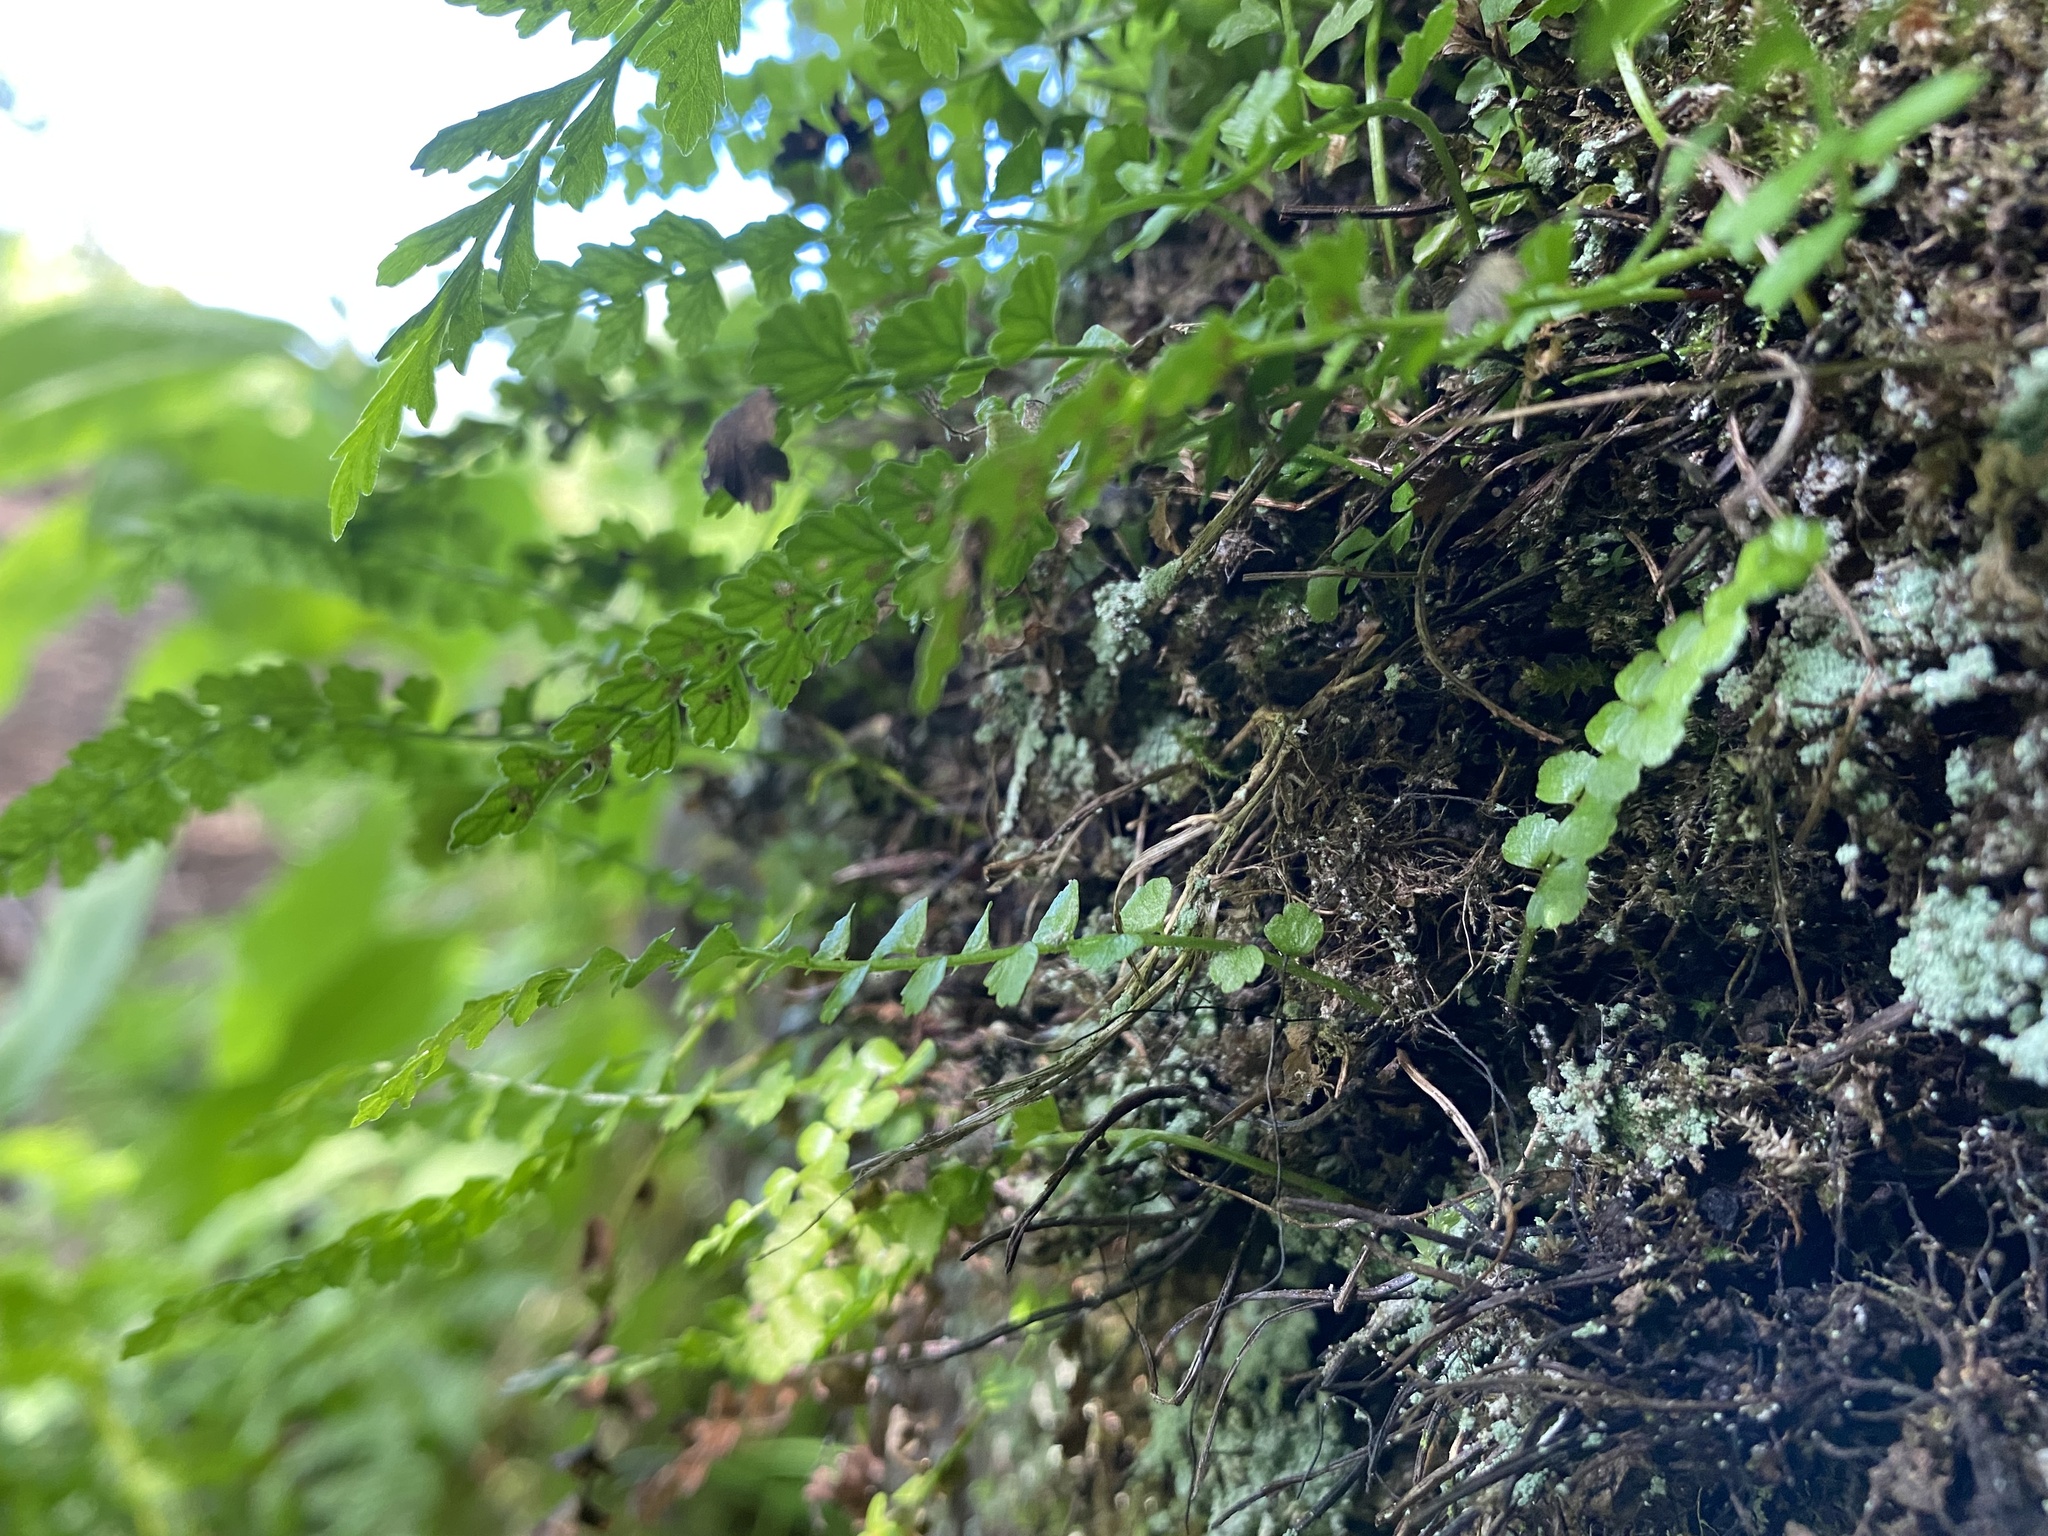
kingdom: Plantae
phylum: Tracheophyta
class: Polypodiopsida
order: Polypodiales
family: Cystopteridaceae
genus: Cystopteris
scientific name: Cystopteris fragilis
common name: Brittle bladder fern
